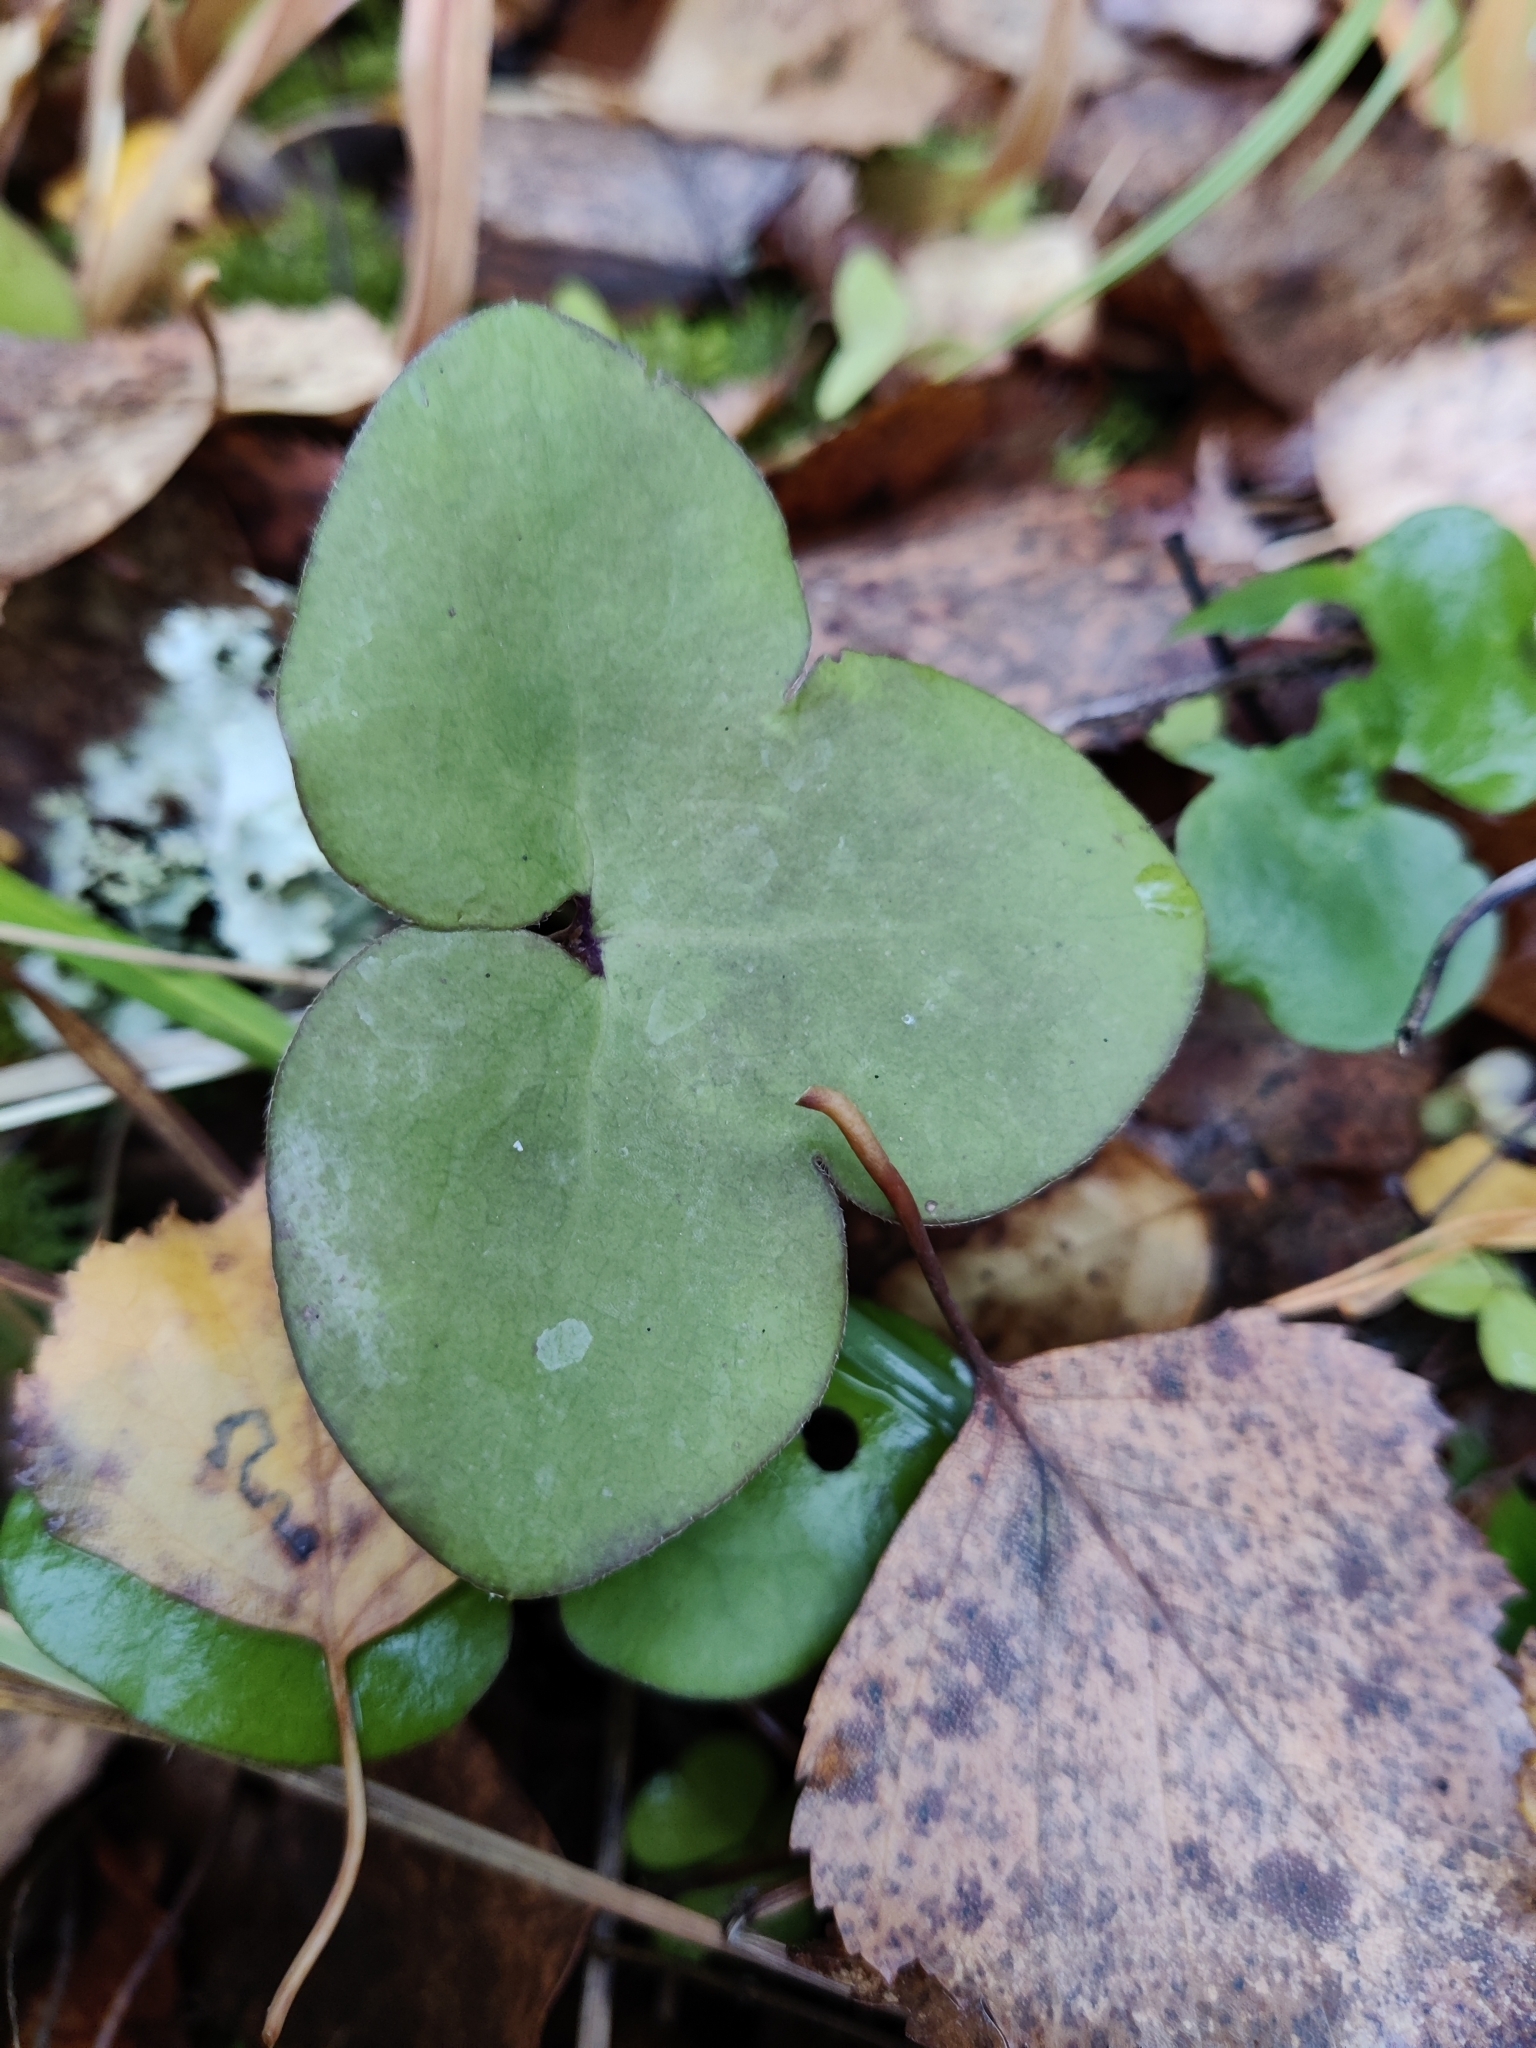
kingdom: Plantae
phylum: Tracheophyta
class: Magnoliopsida
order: Ranunculales
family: Ranunculaceae
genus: Hepatica
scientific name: Hepatica nobilis
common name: Liverleaf
